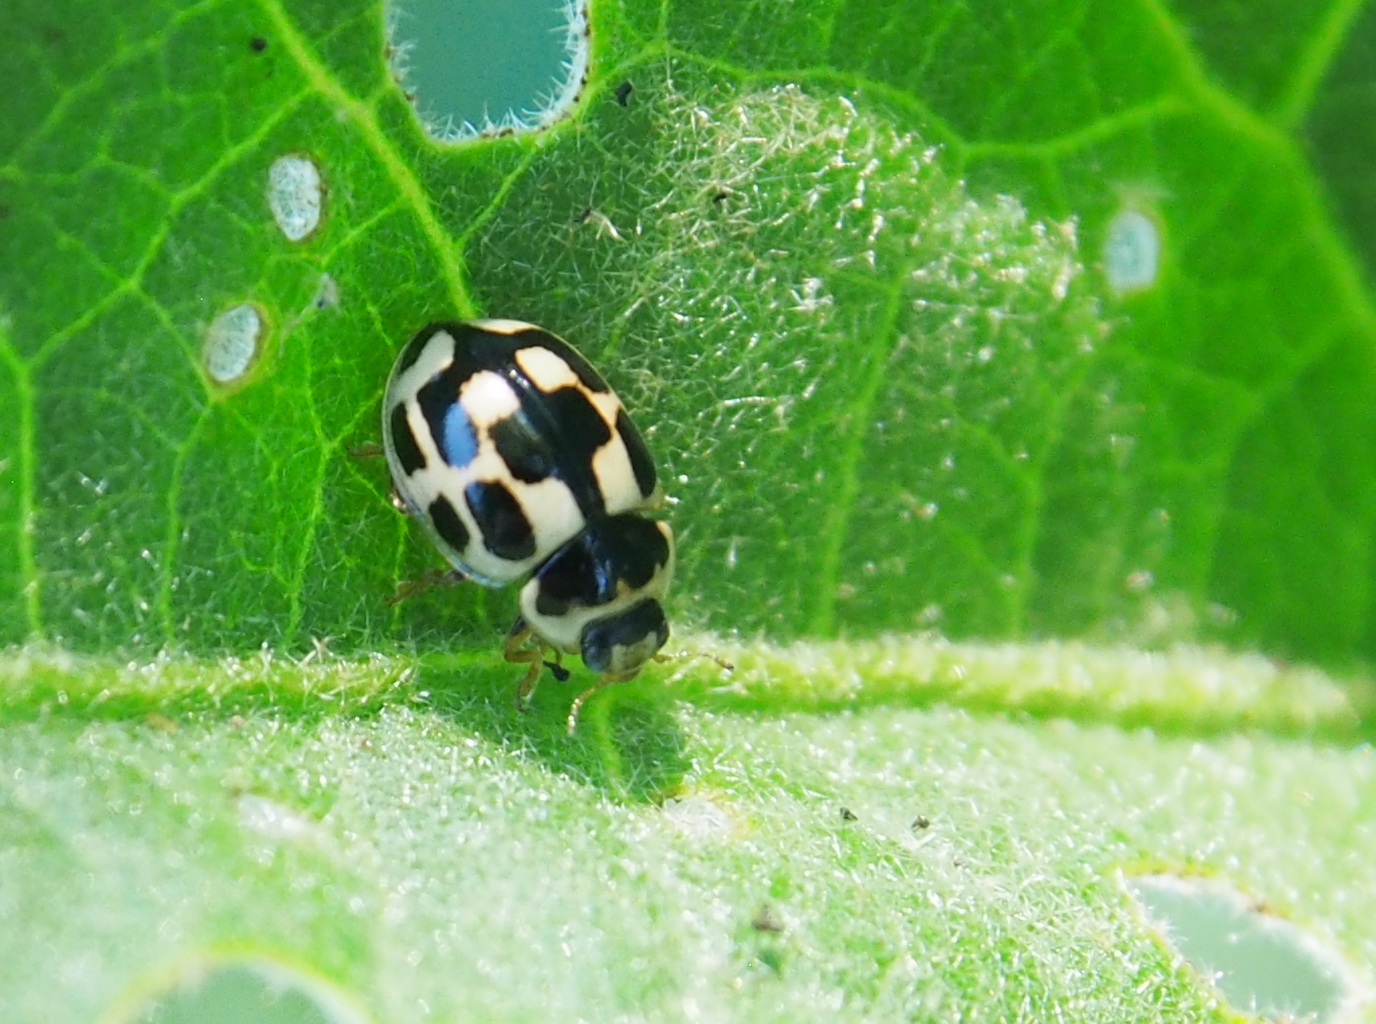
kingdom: Animalia
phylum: Arthropoda
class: Insecta
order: Coleoptera
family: Coccinellidae
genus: Propylaea
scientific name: Propylaea quatuordecimpunctata
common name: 14-spotted ladybird beetle
